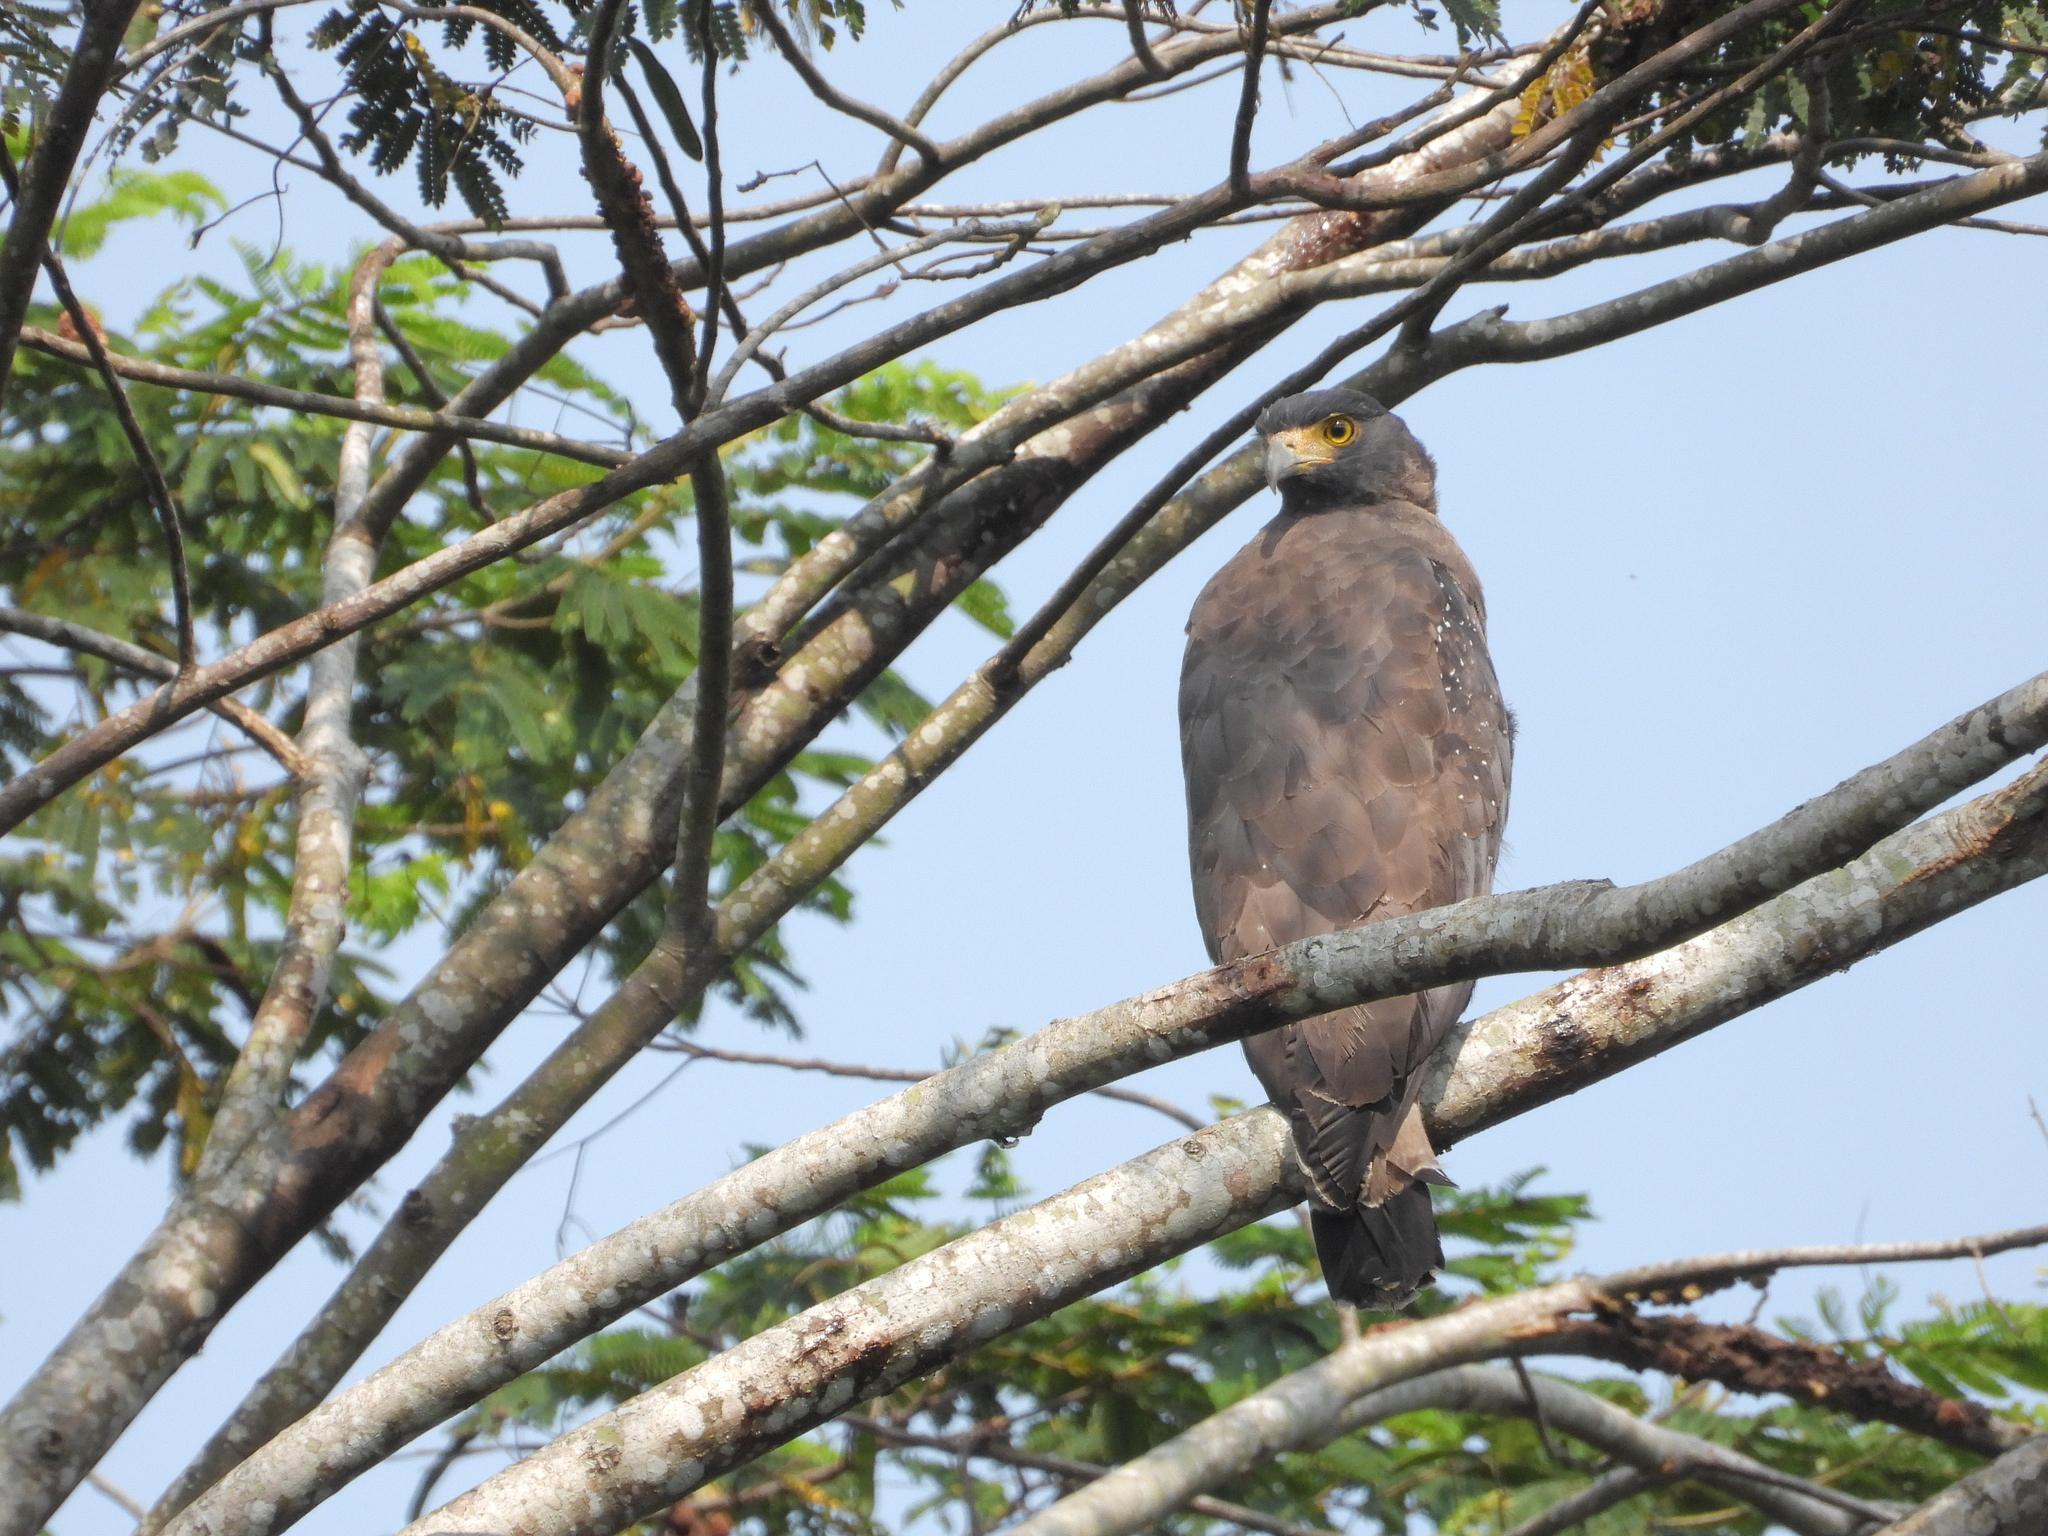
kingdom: Animalia
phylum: Chordata
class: Aves
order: Accipitriformes
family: Accipitridae
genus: Spilornis
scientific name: Spilornis cheela
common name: Crested serpent eagle
